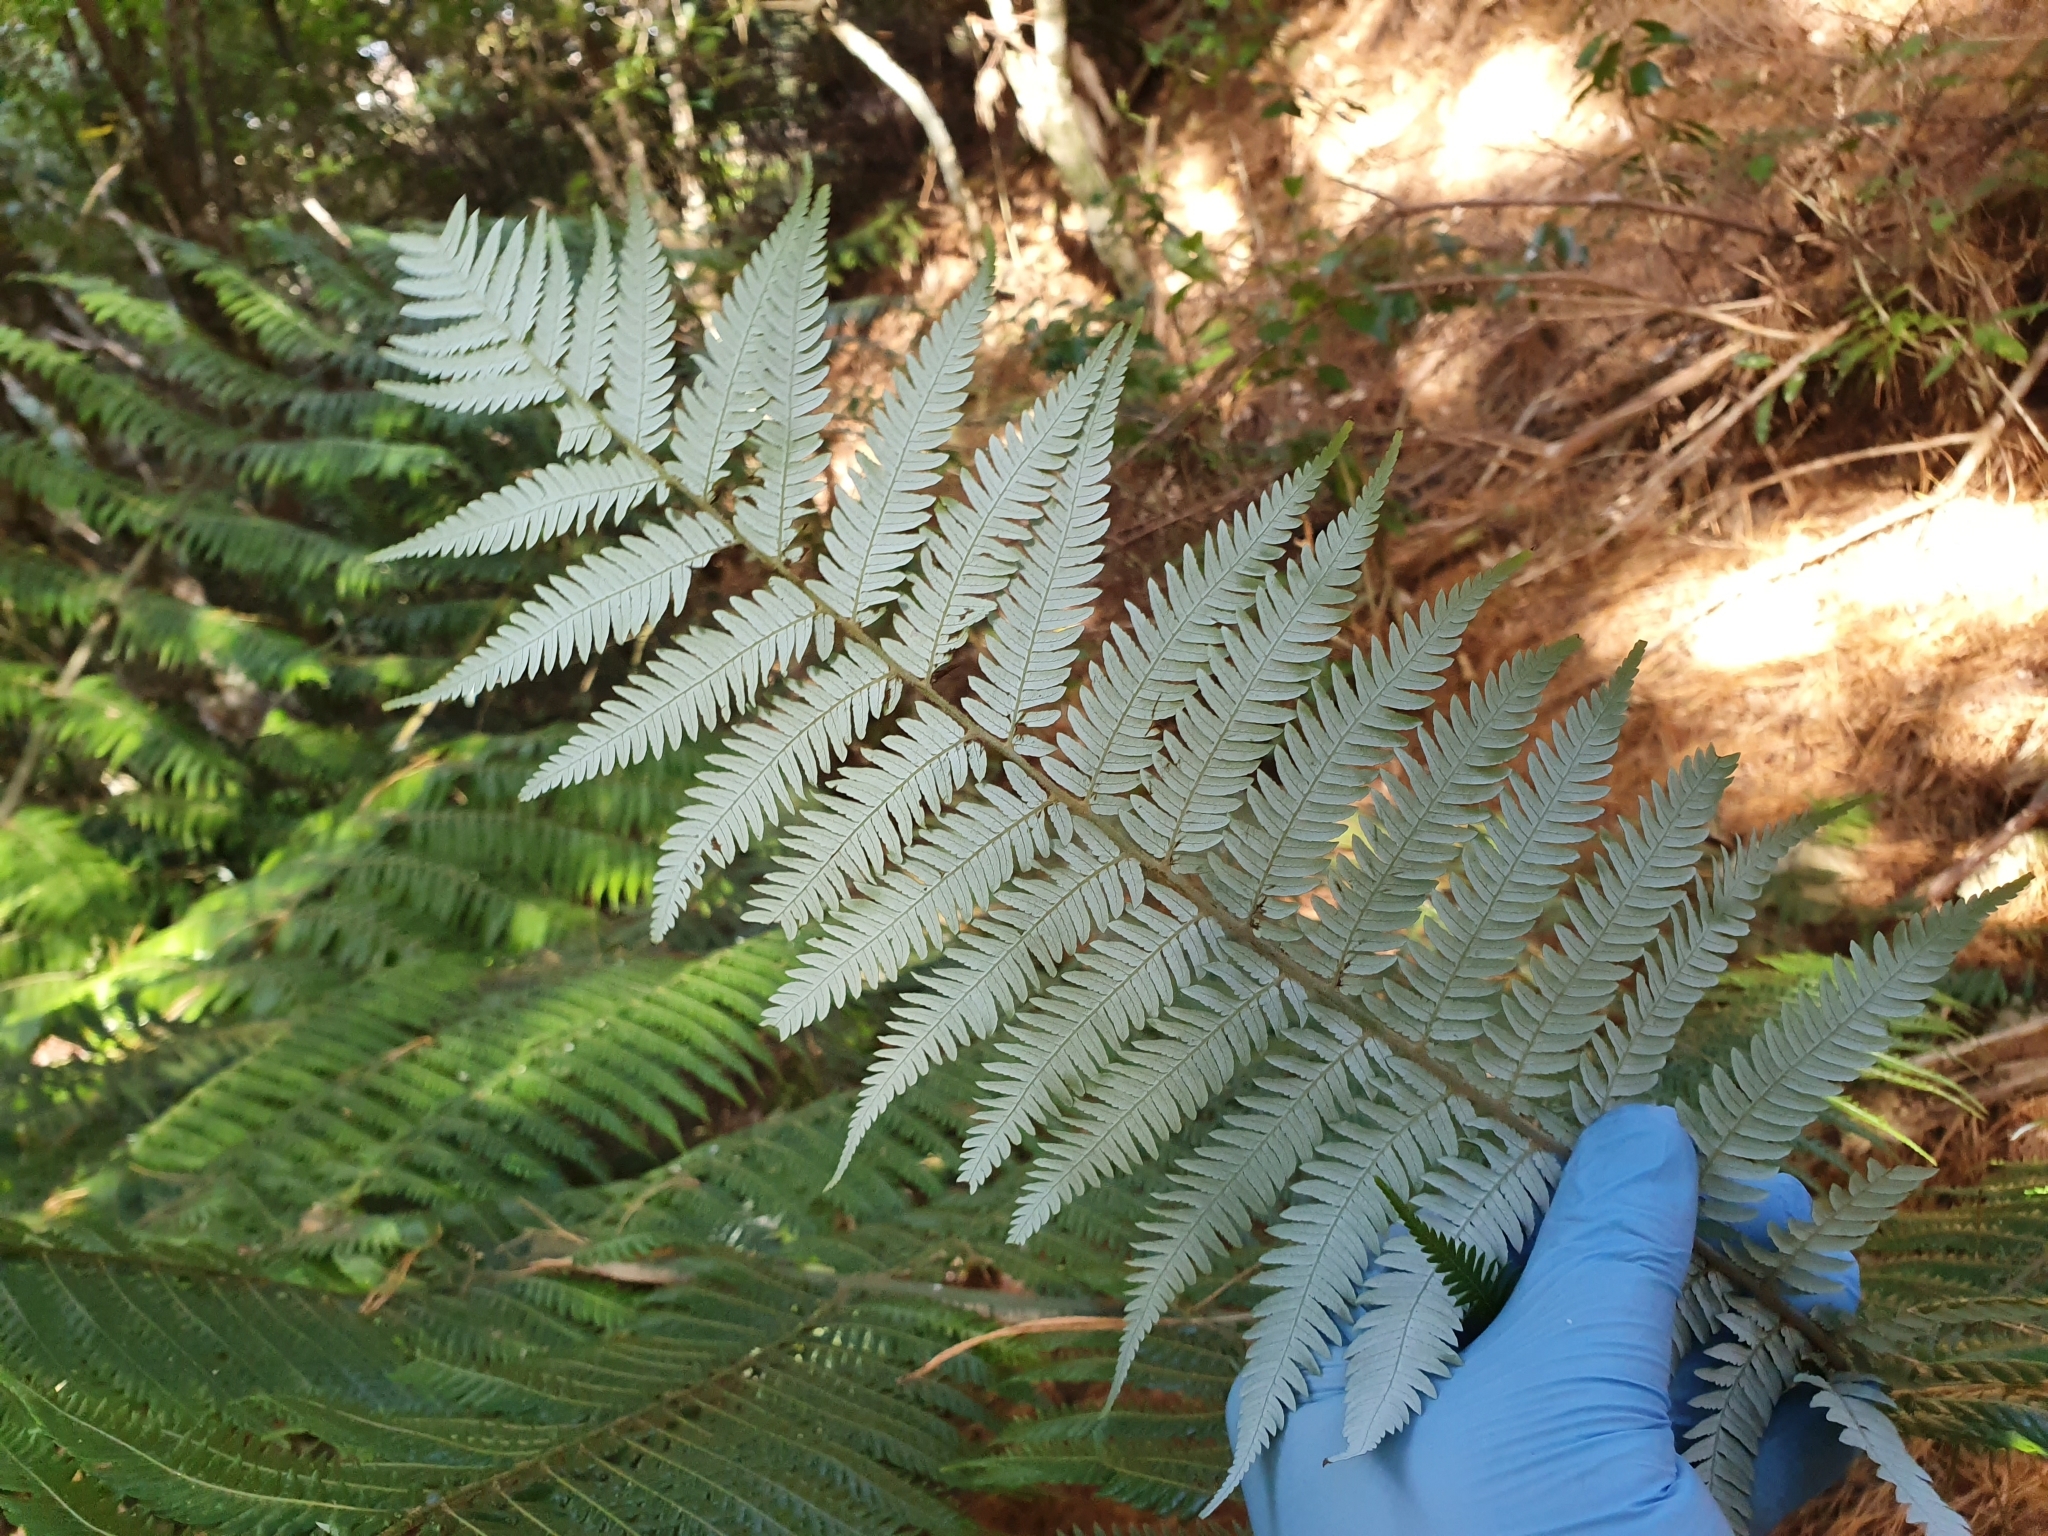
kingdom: Plantae
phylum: Tracheophyta
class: Polypodiopsida
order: Cyatheales
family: Cyatheaceae
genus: Alsophila
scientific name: Alsophila dealbata
